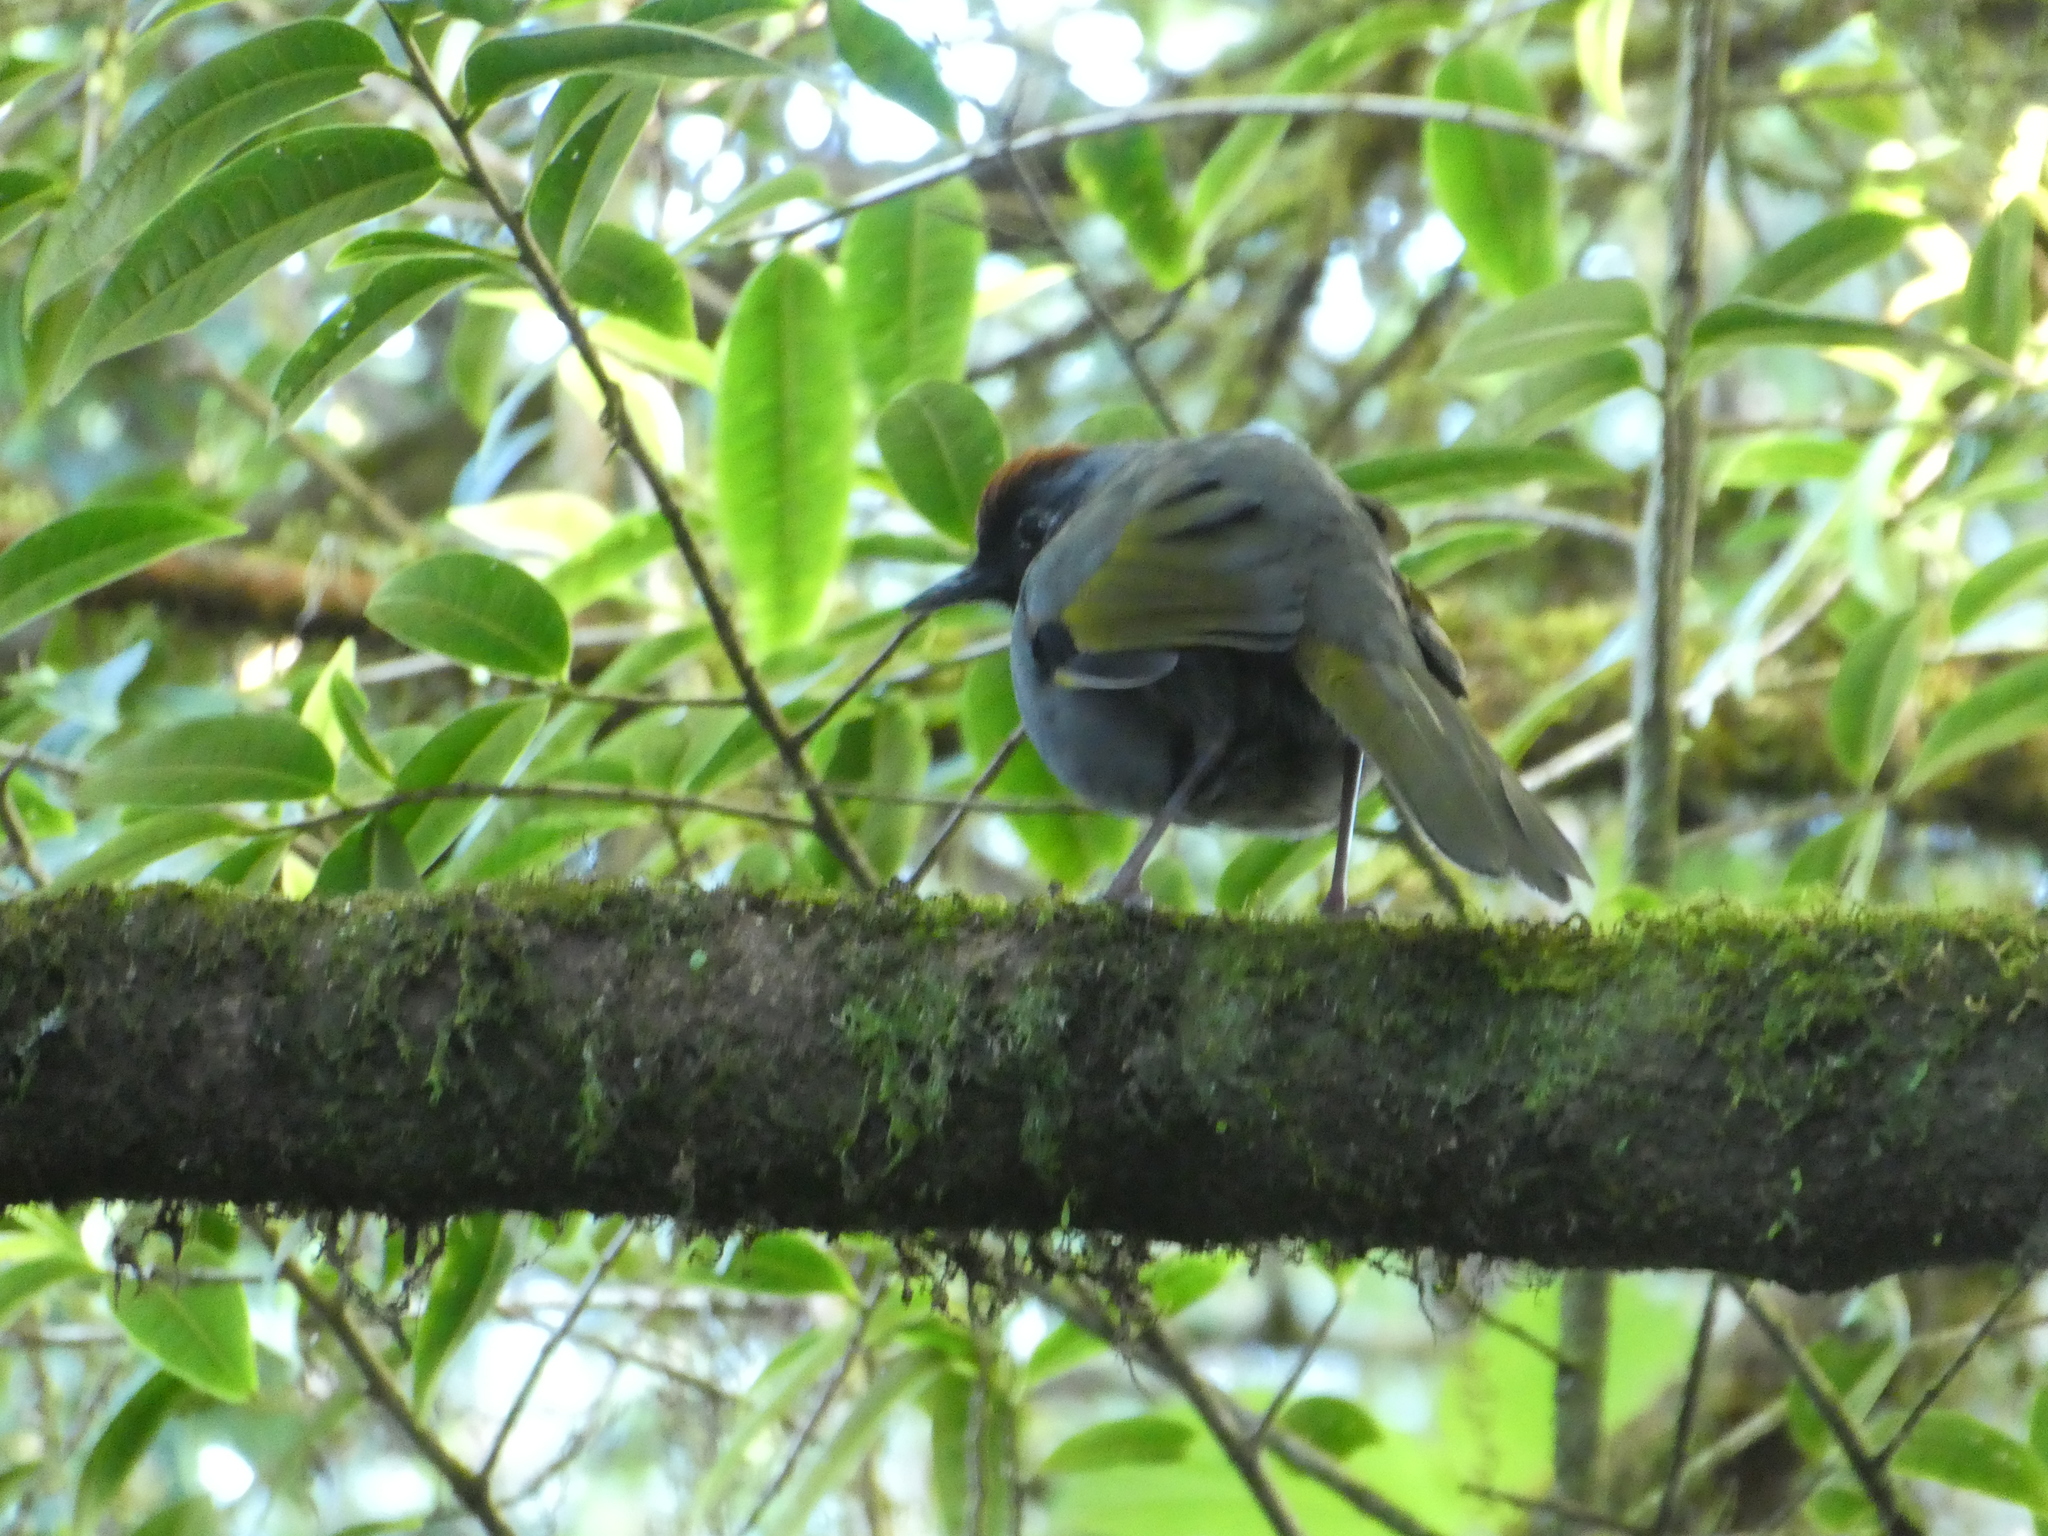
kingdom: Animalia
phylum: Chordata
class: Aves
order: Passeriformes
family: Leiothrichidae
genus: Trochalopteron
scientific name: Trochalopteron melanostigma
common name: Silver-eared laughingthrush
